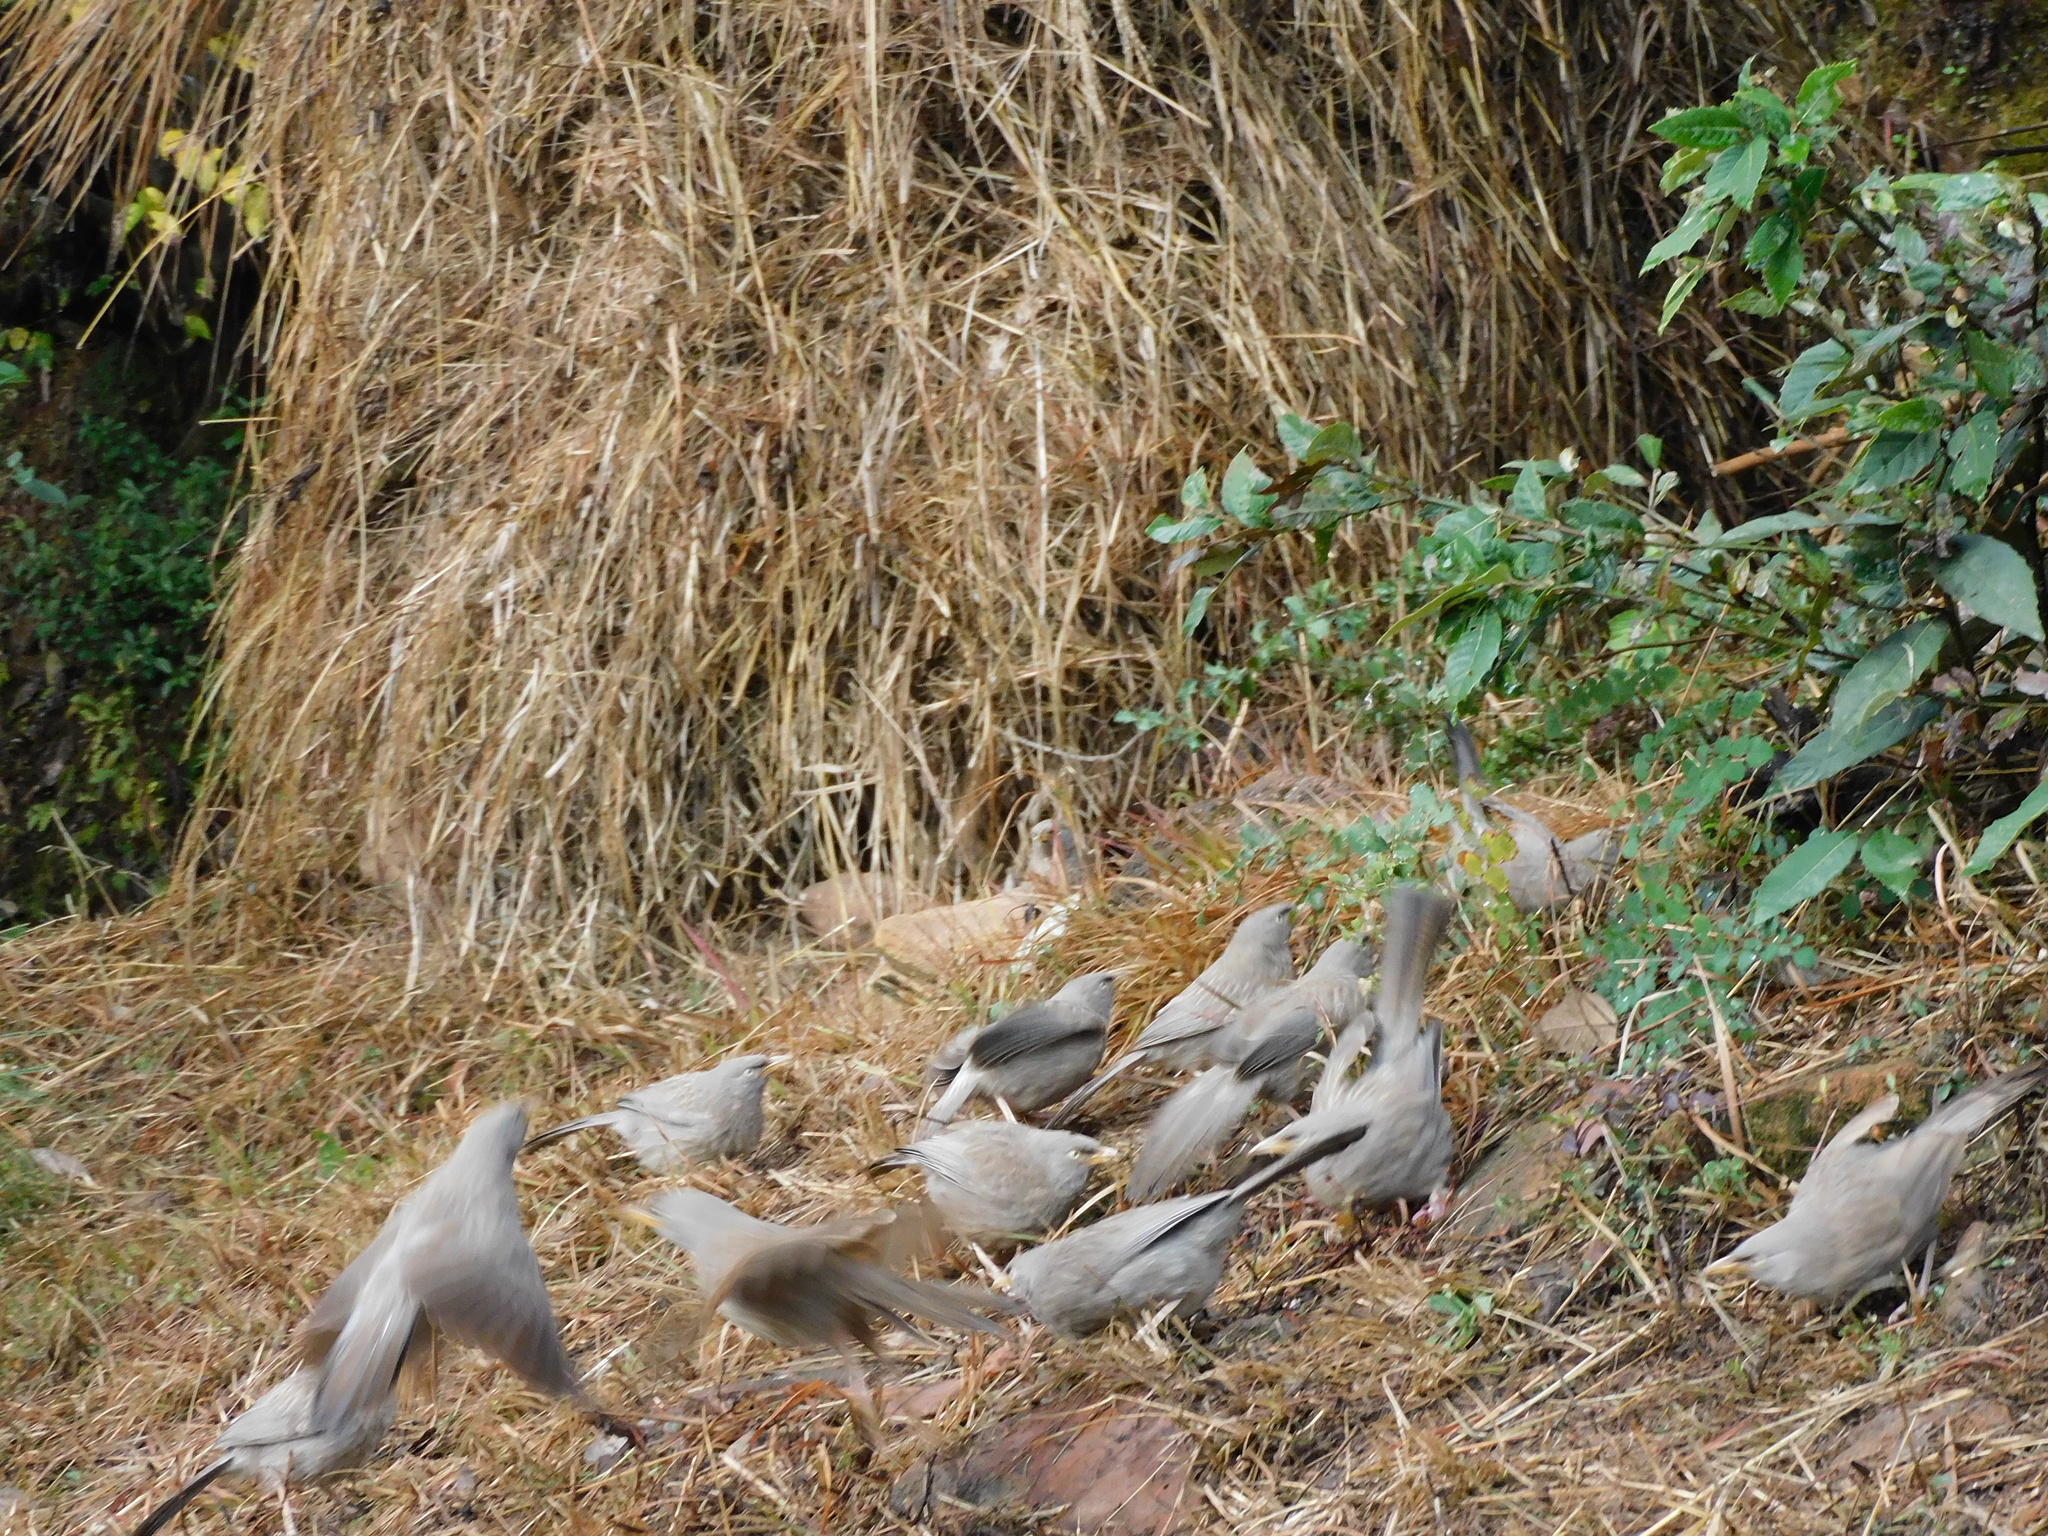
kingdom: Animalia
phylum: Chordata
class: Aves
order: Passeriformes
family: Leiothrichidae
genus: Turdoides
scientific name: Turdoides striata
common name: Jungle babbler
